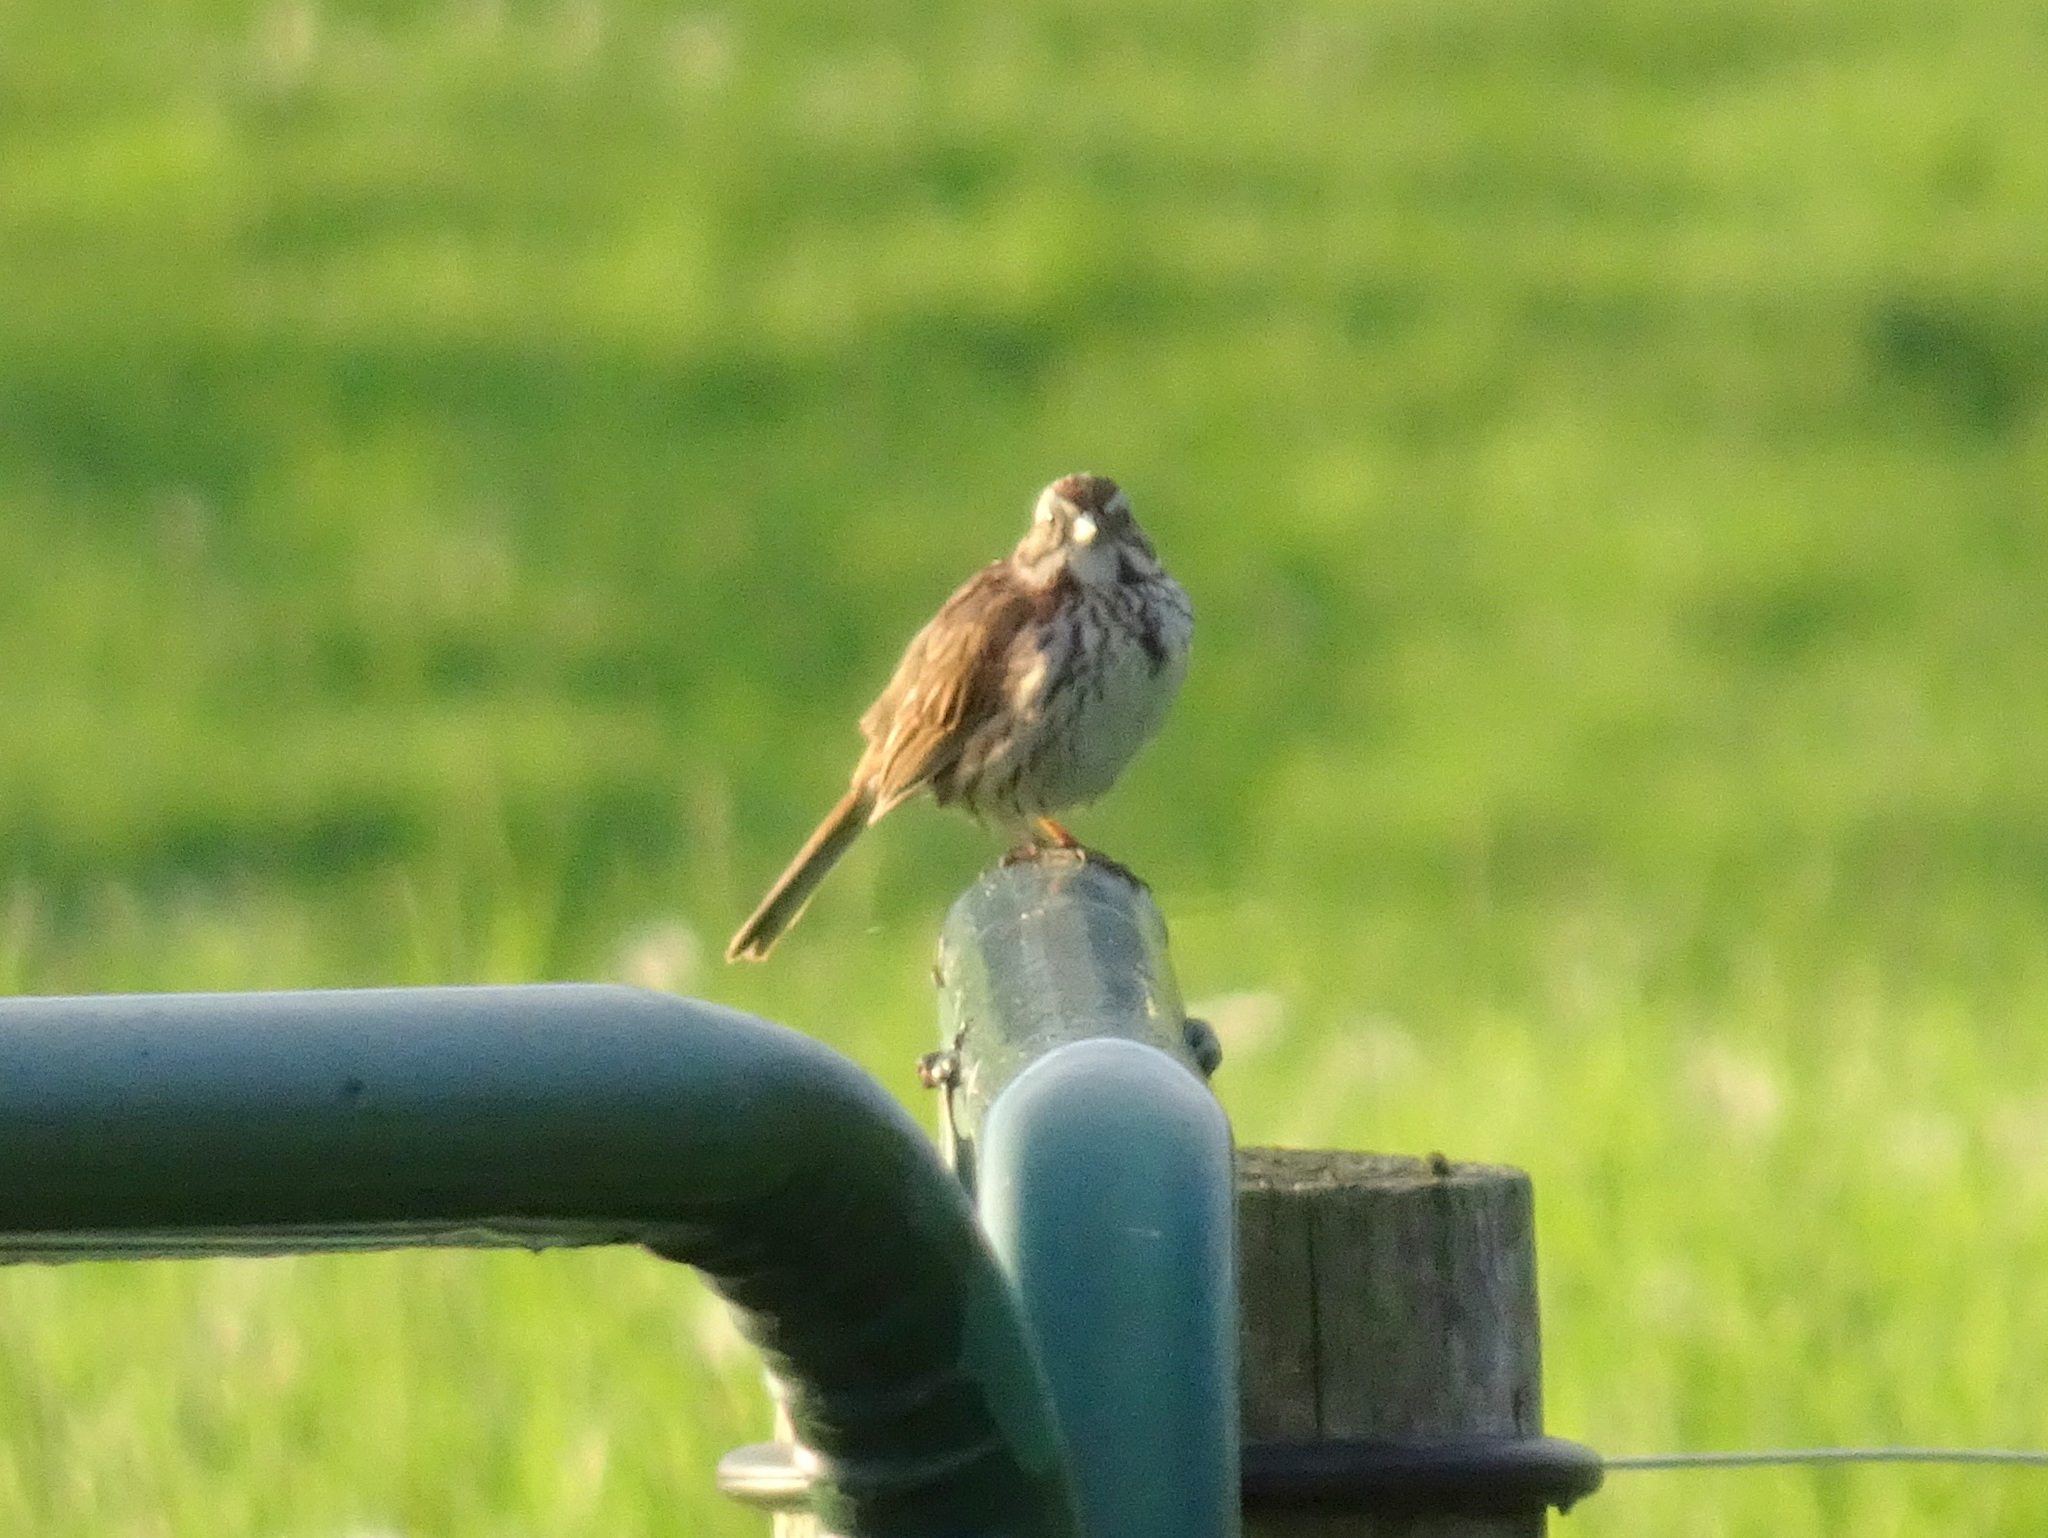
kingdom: Animalia
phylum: Chordata
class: Aves
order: Passeriformes
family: Passerellidae
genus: Melospiza
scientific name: Melospiza melodia
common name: Song sparrow
